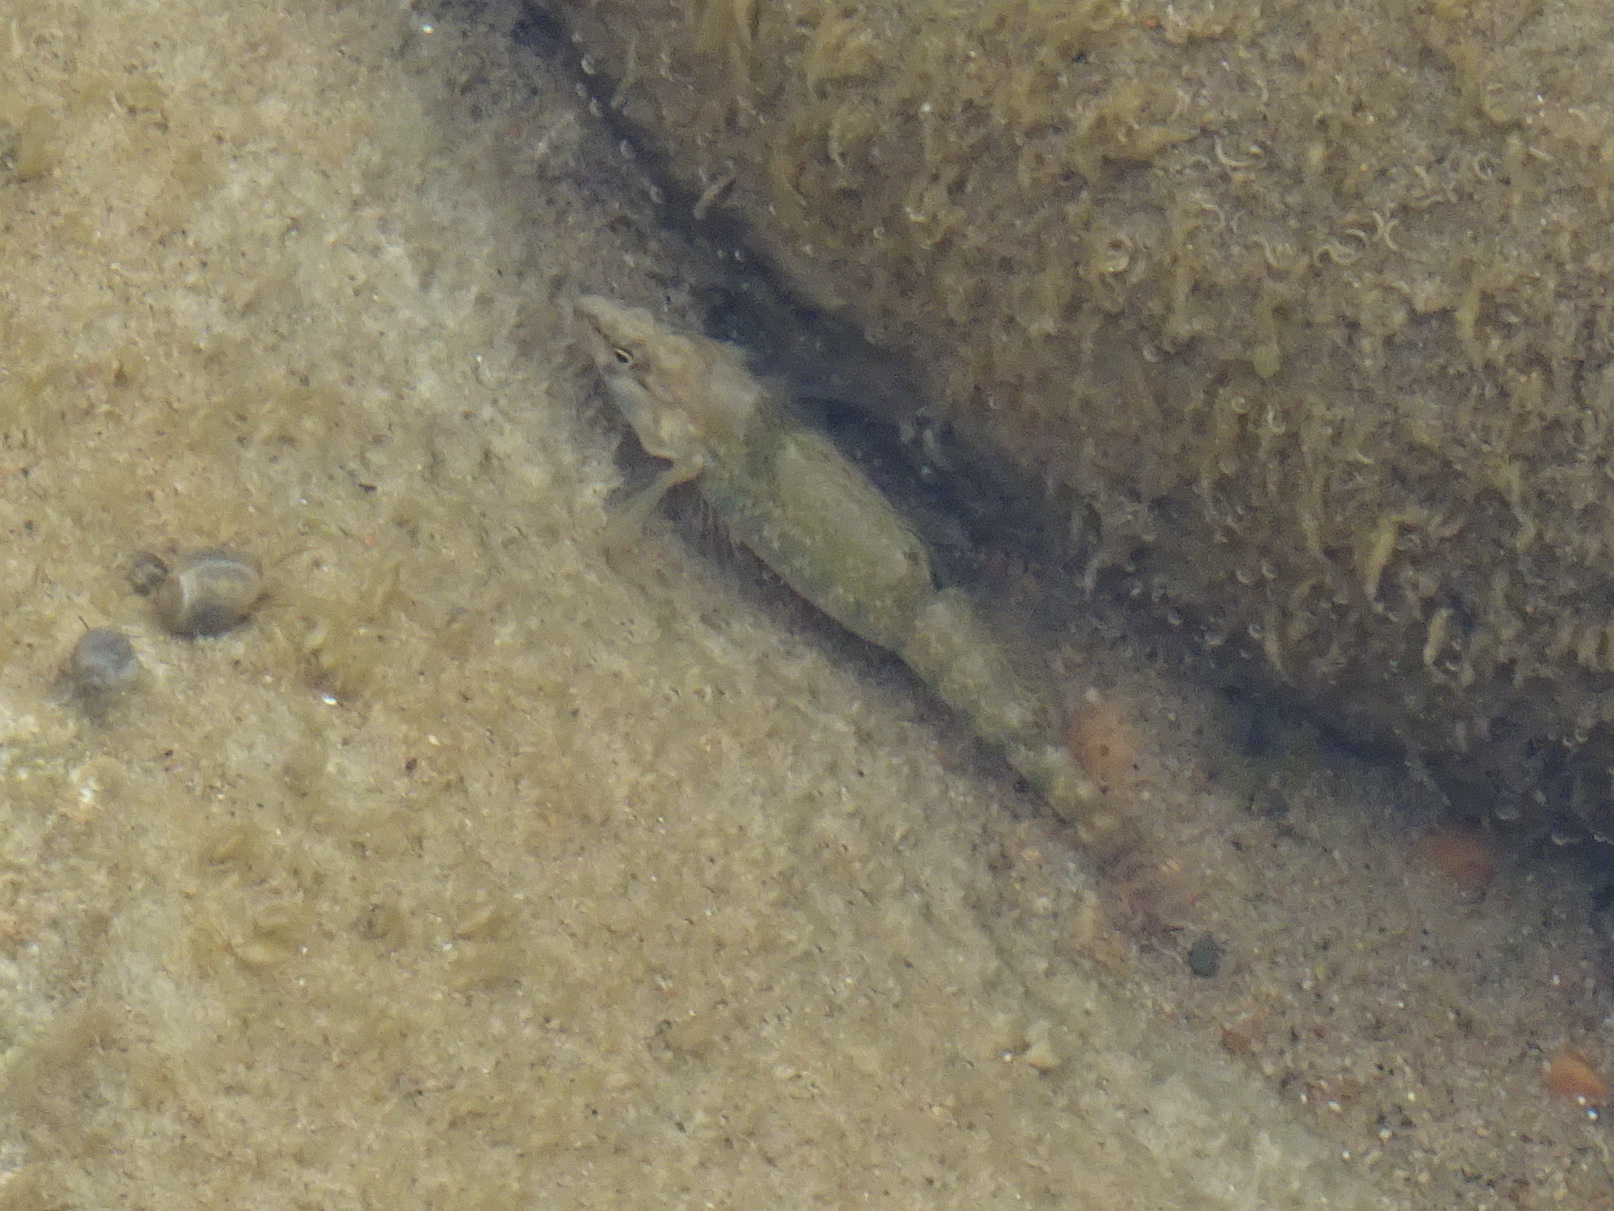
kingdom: Animalia
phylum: Chordata
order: Perciformes
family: Percidae
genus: Etheostoma
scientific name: Etheostoma caeruleum
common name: Rainbow darter
